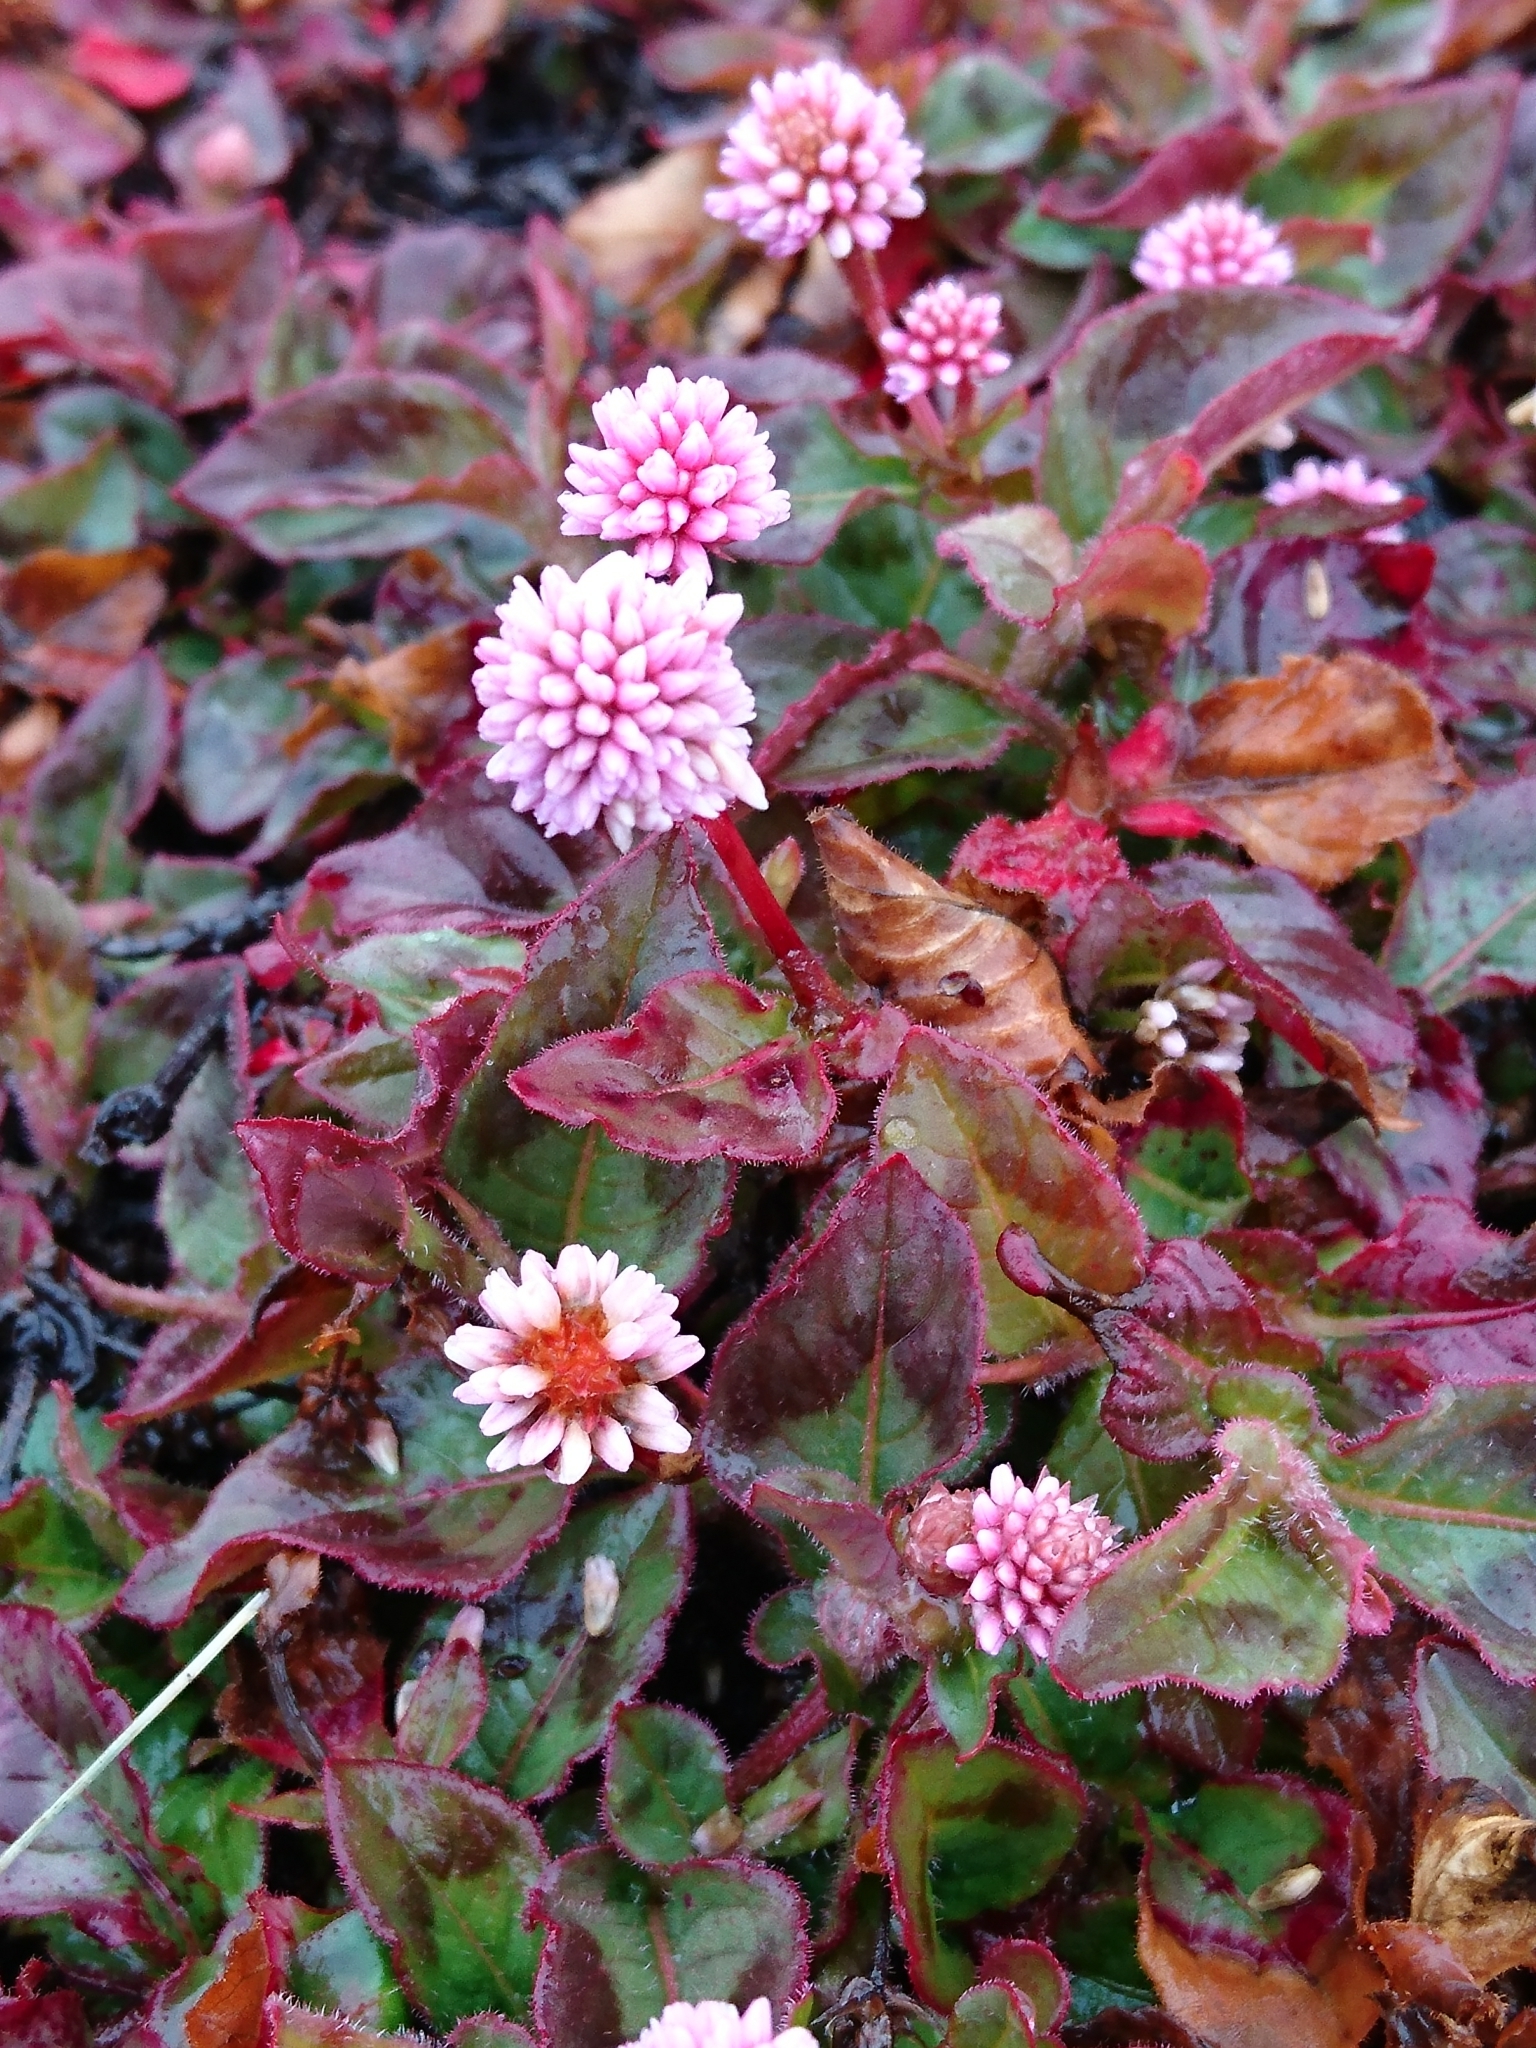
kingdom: Plantae
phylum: Tracheophyta
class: Magnoliopsida
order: Caryophyllales
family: Polygonaceae
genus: Persicaria
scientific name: Persicaria capitata
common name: Pinkhead smartweed
